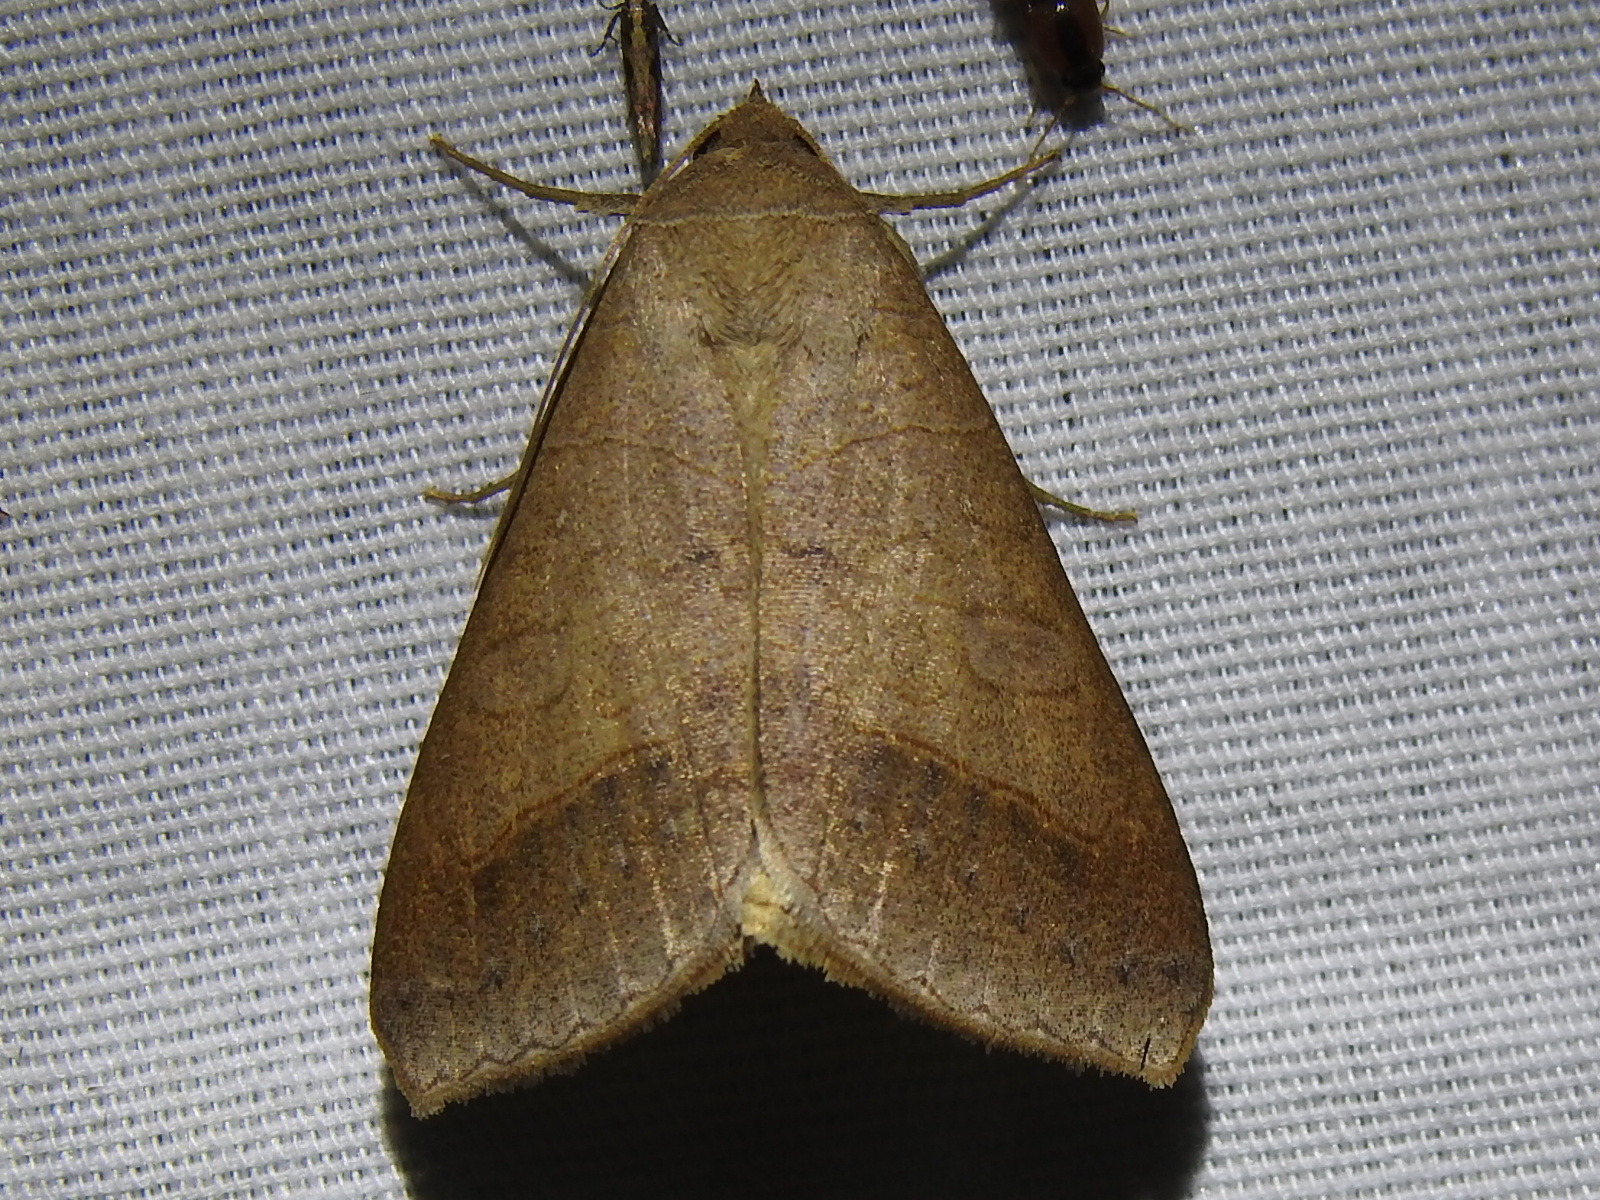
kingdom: Animalia
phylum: Arthropoda
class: Insecta
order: Lepidoptera
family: Erebidae
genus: Mocis
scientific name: Mocis marcida
